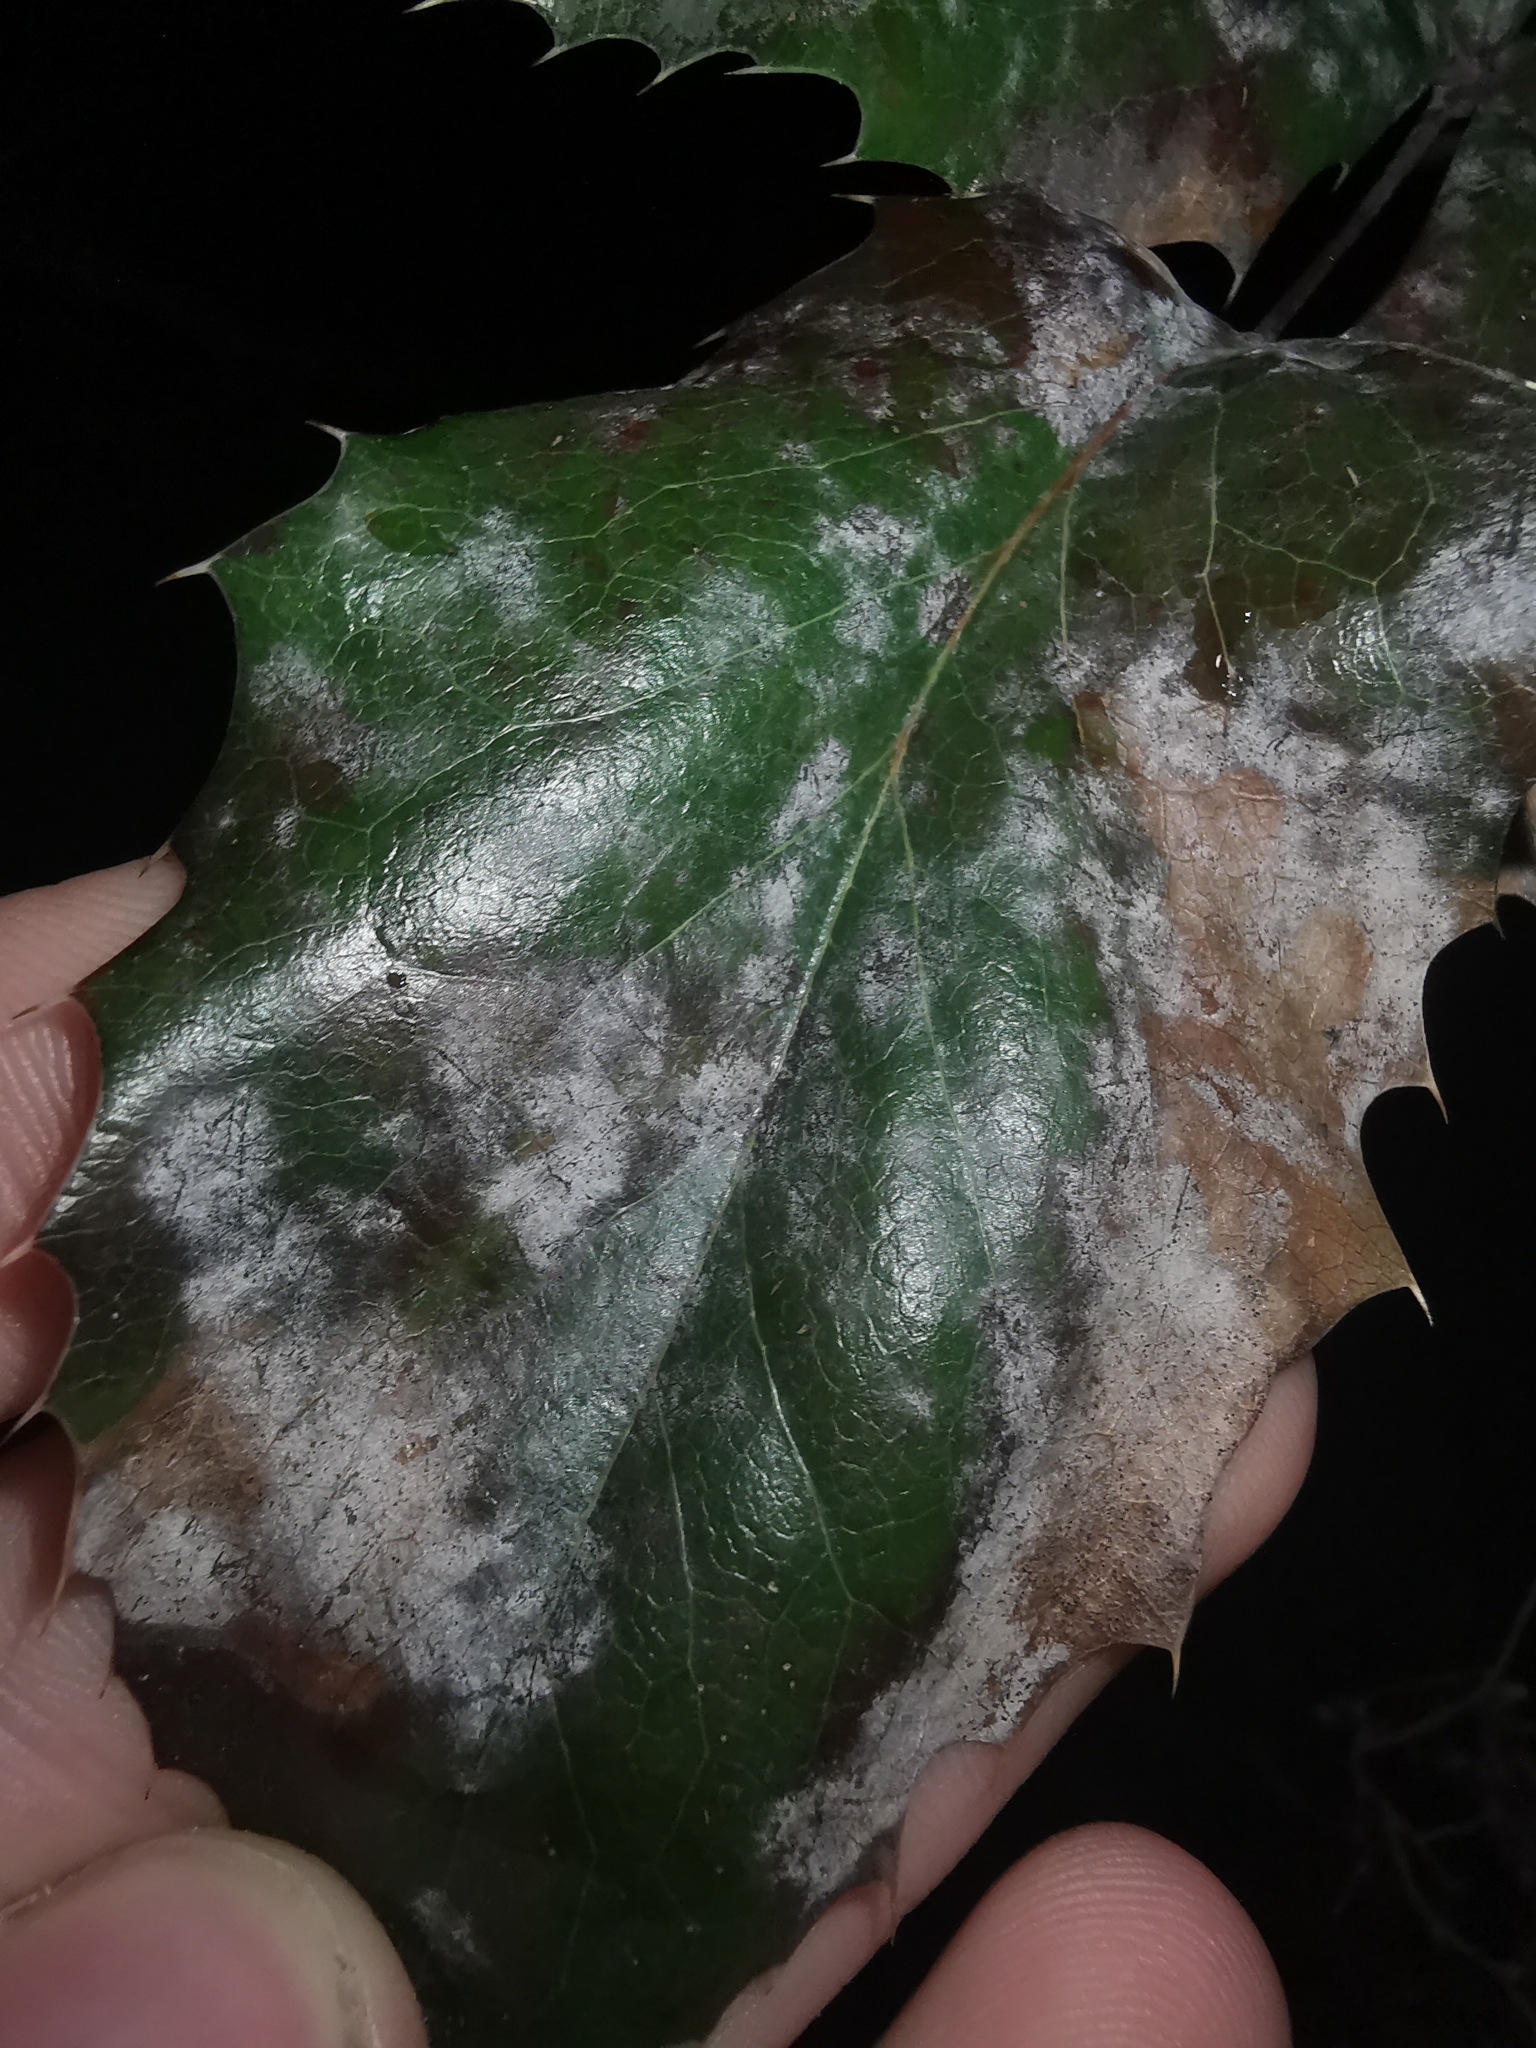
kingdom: Fungi
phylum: Ascomycota
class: Leotiomycetes
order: Helotiales
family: Erysiphaceae
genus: Erysiphe
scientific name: Erysiphe berberidis
